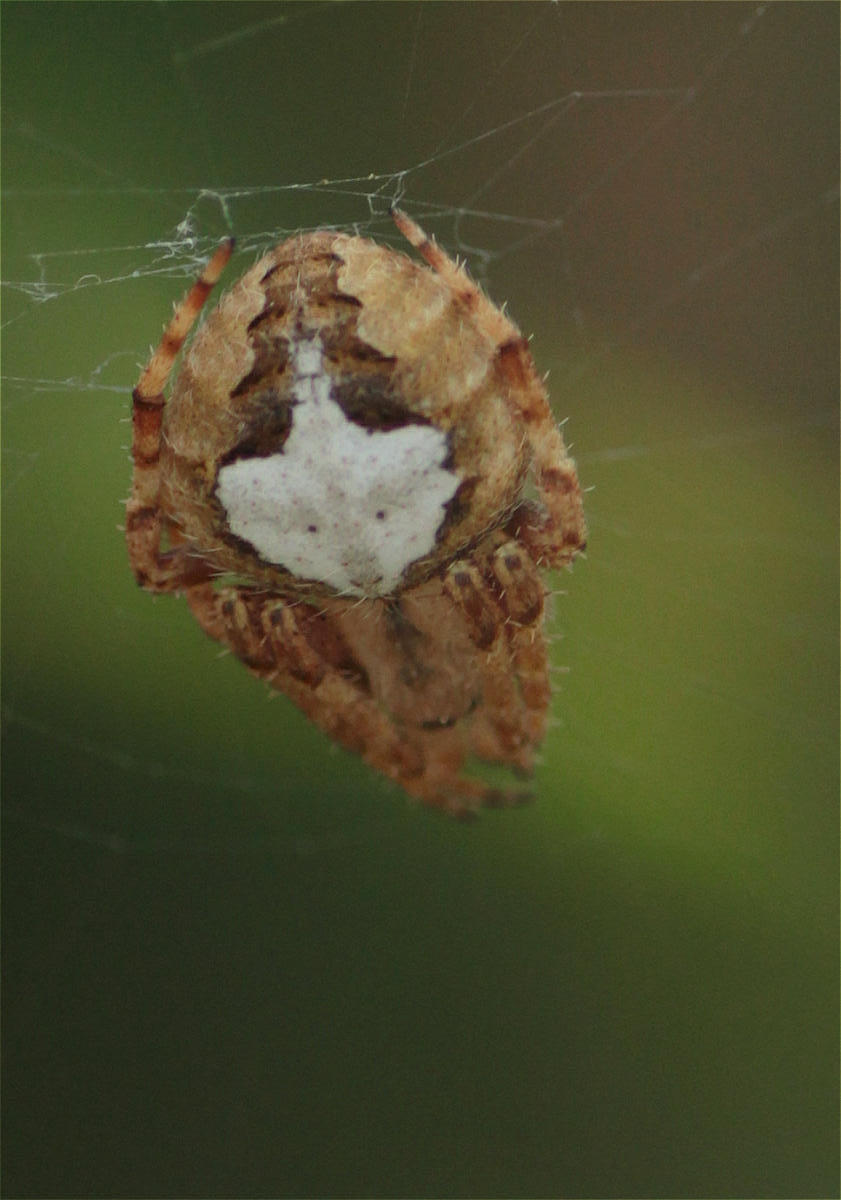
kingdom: Animalia
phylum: Arthropoda
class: Arachnida
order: Araneae
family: Araneidae
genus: Neoscona
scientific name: Neoscona subfusca
